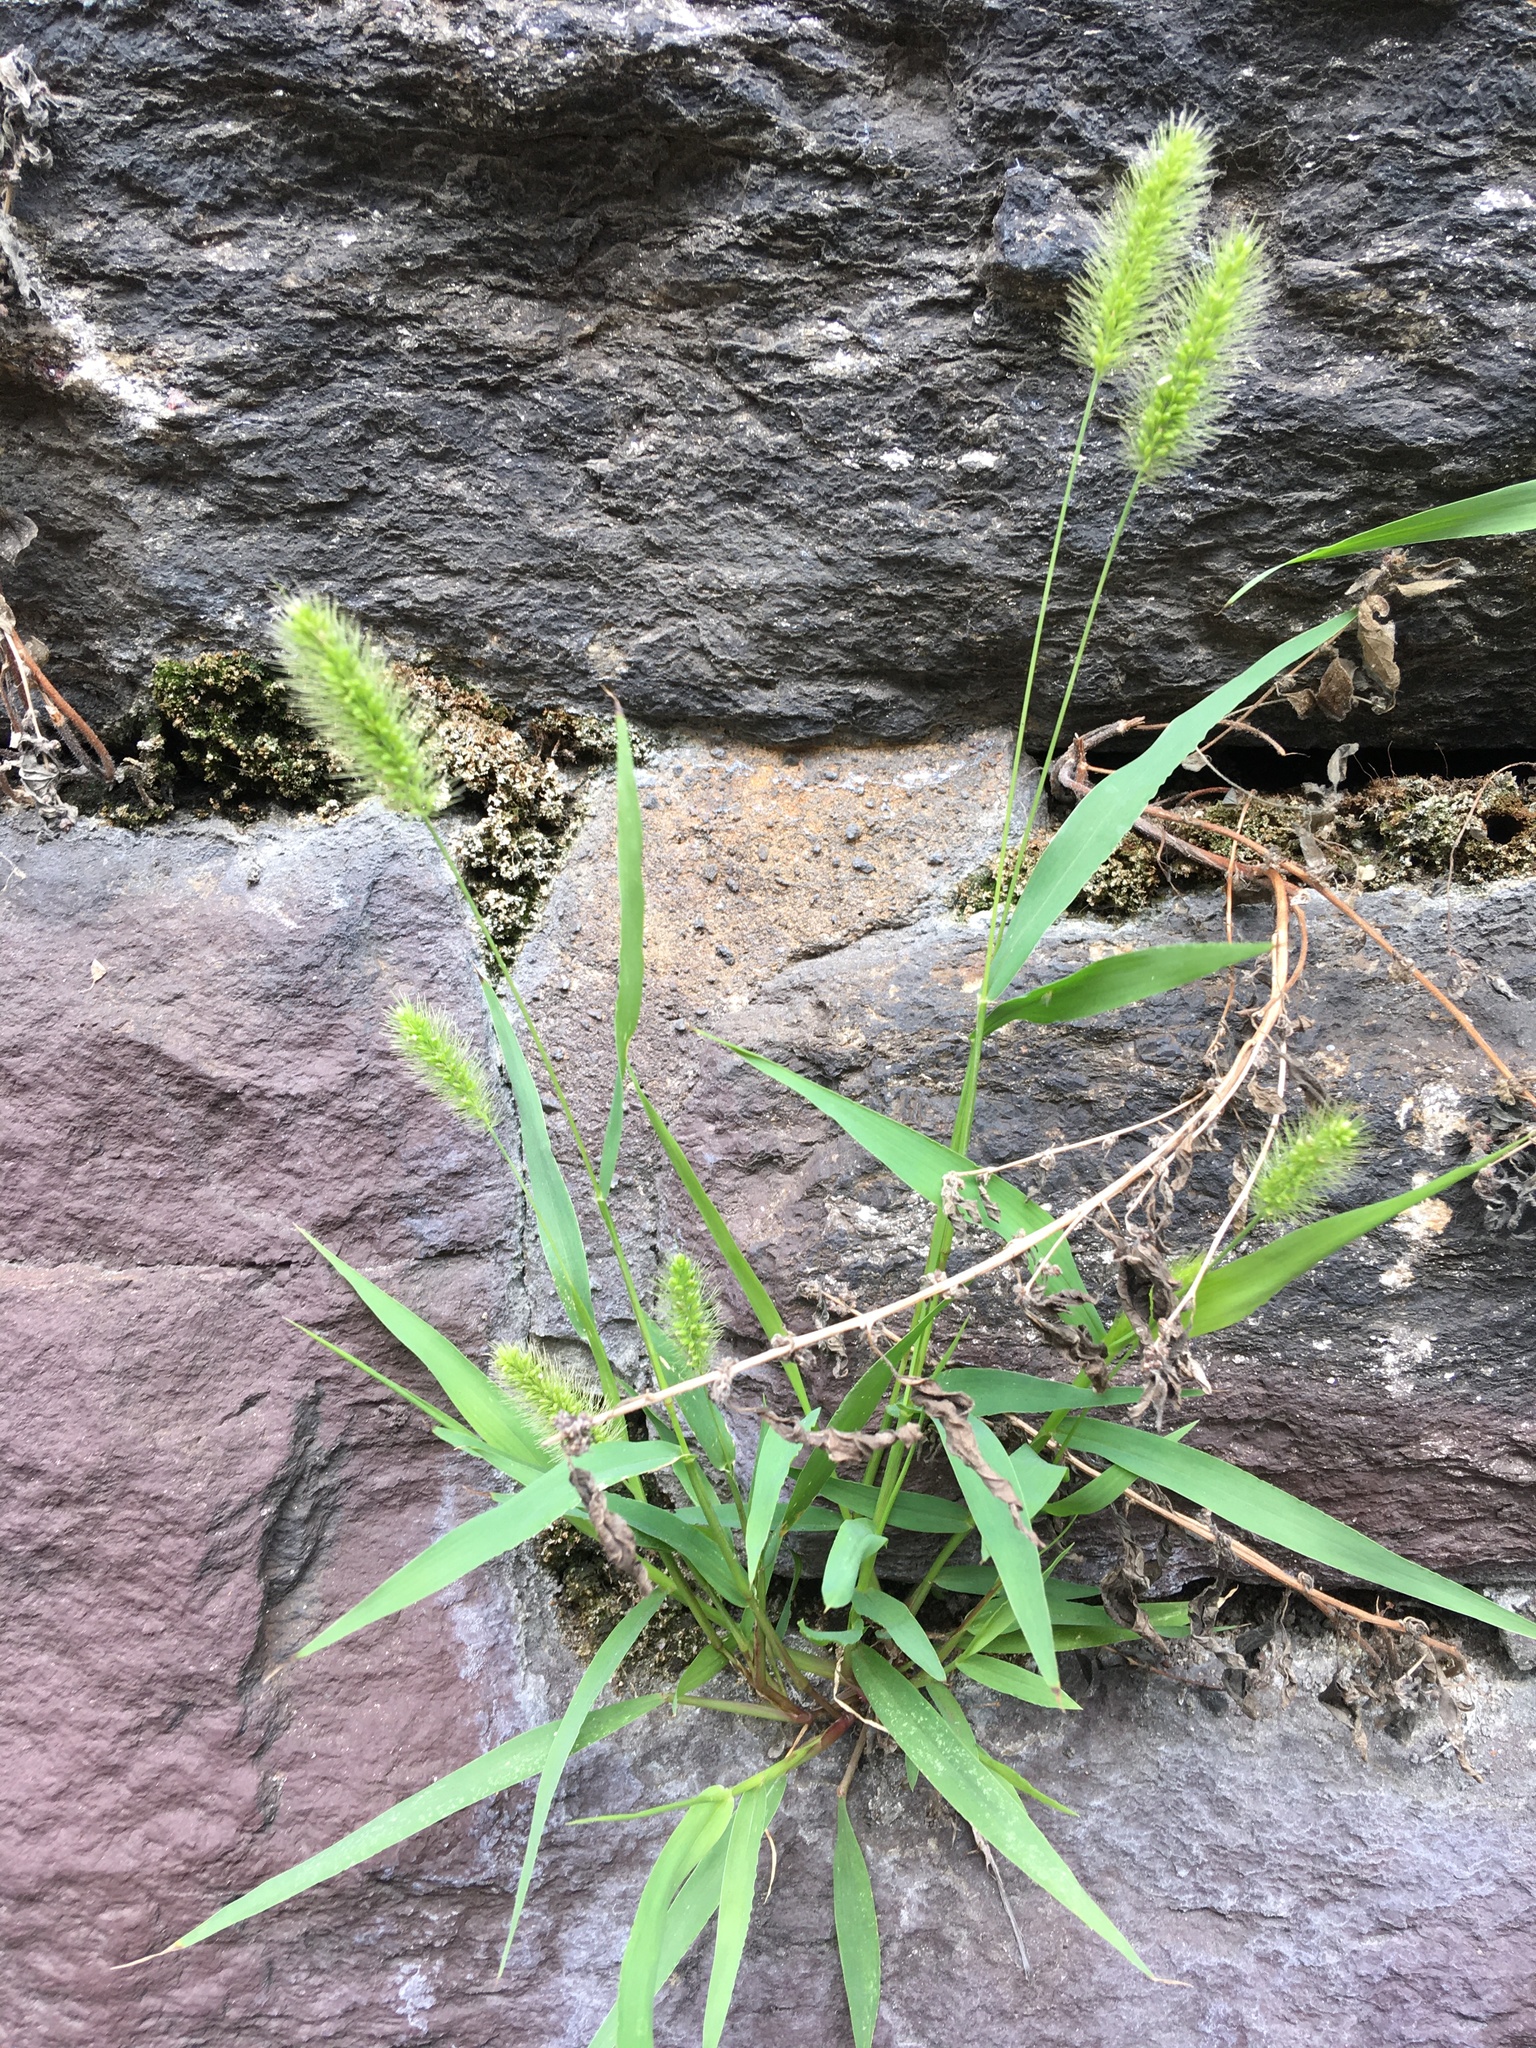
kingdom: Plantae
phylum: Tracheophyta
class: Liliopsida
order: Poales
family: Poaceae
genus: Setaria
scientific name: Setaria viridis
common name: Green bristlegrass
